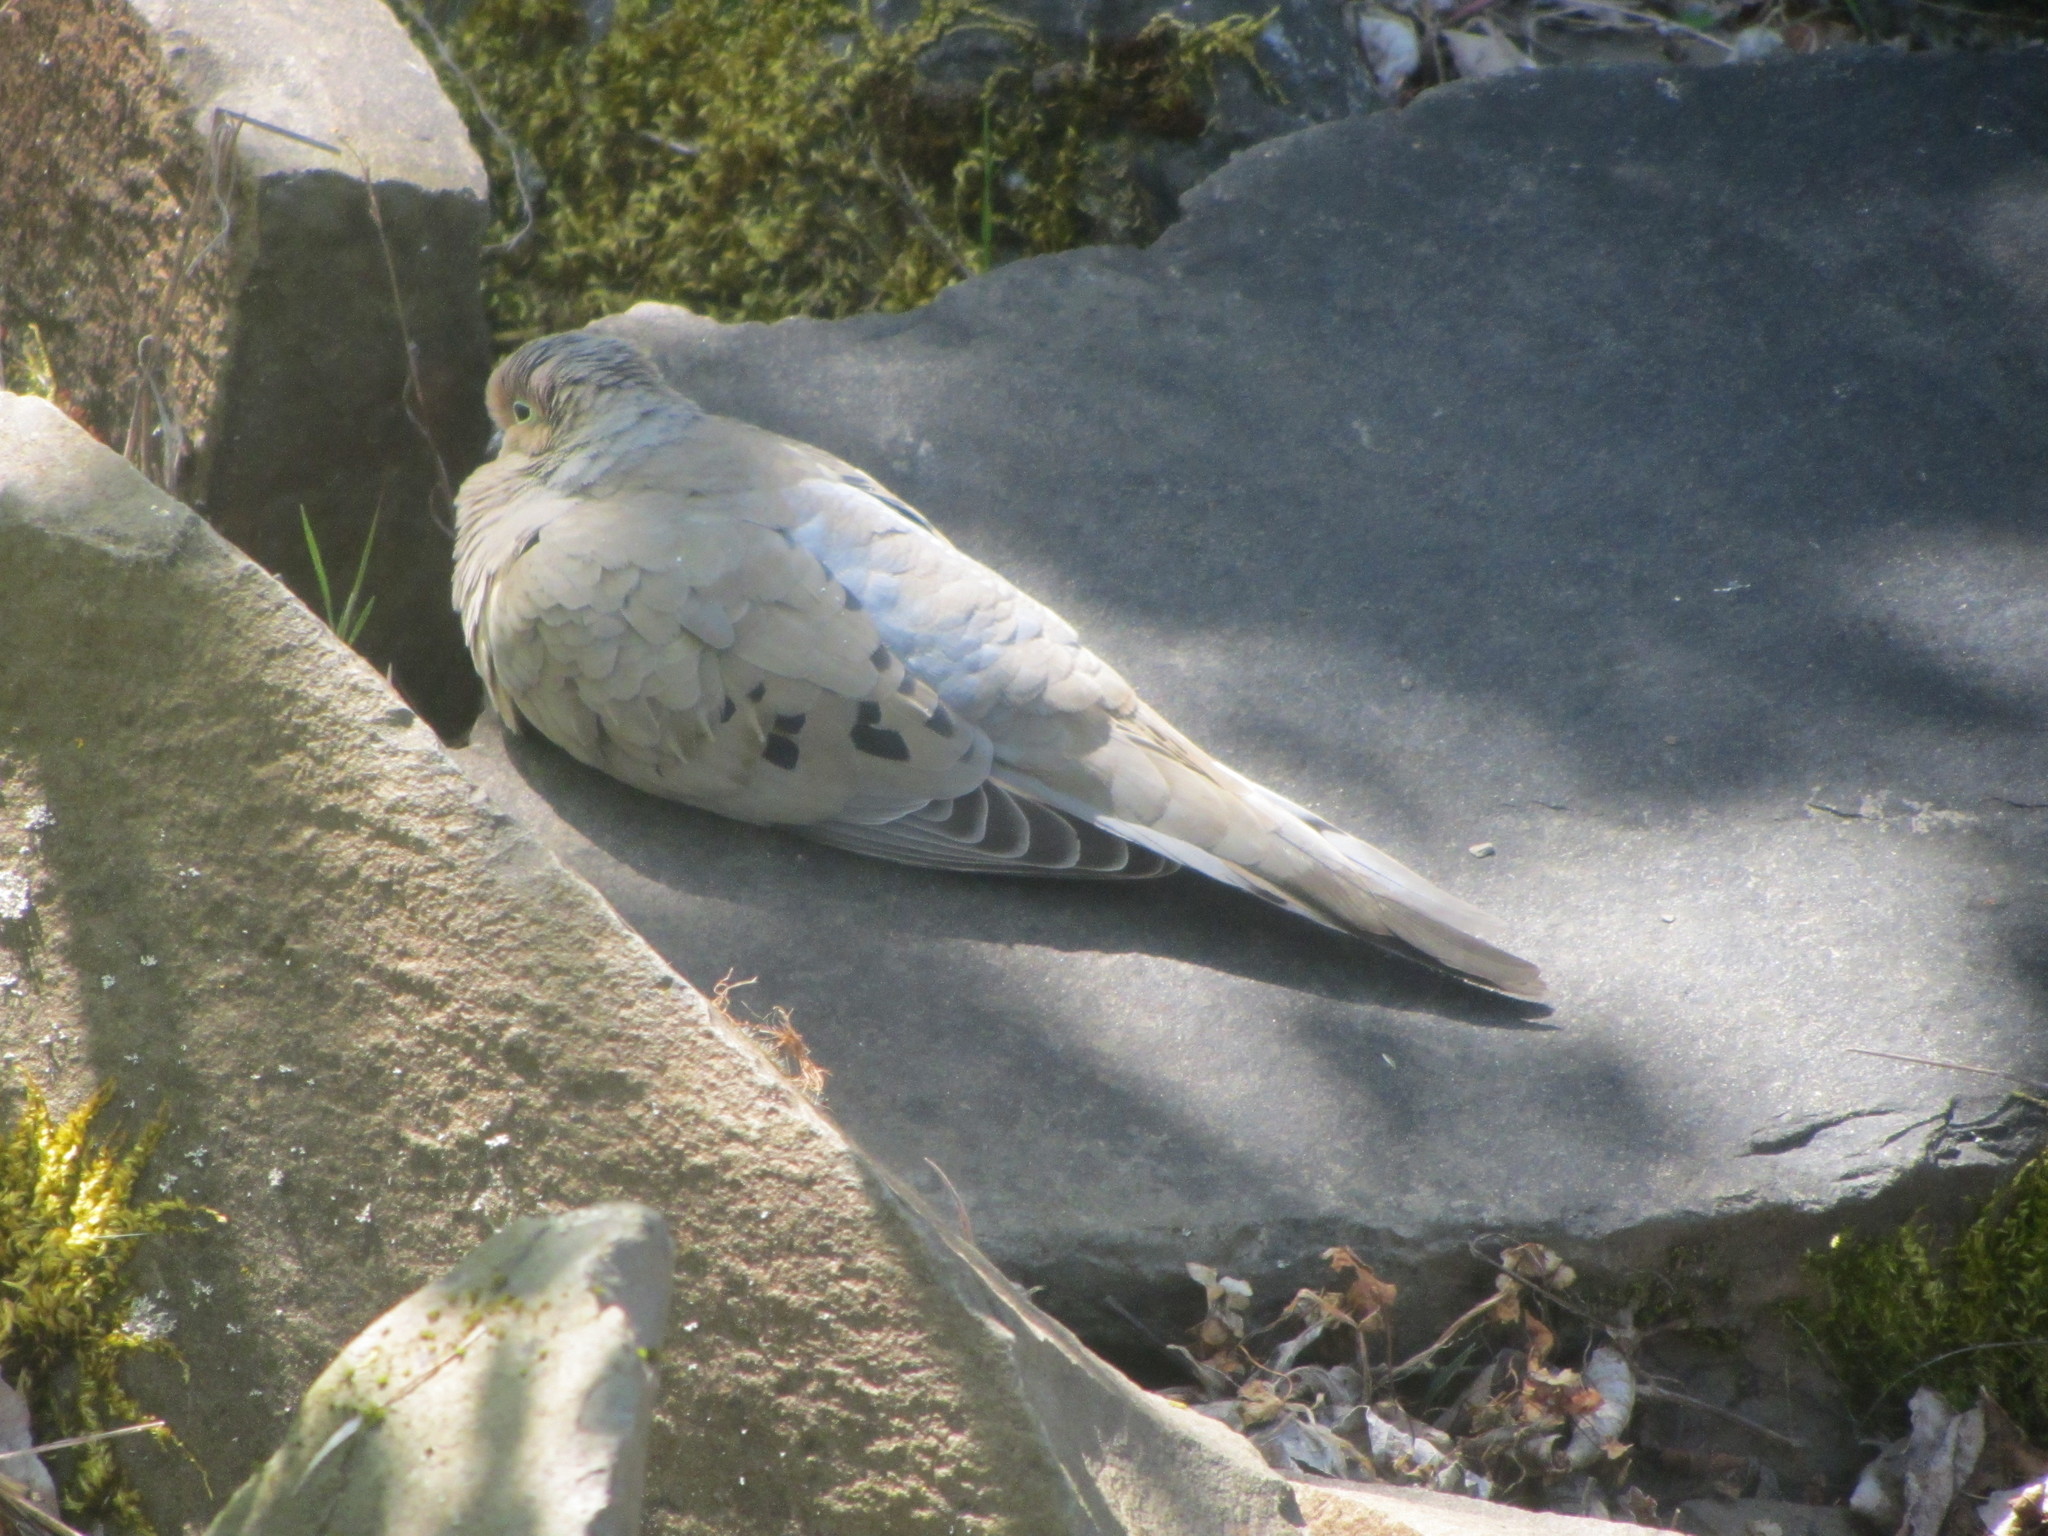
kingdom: Animalia
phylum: Chordata
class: Aves
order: Columbiformes
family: Columbidae
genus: Zenaida
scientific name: Zenaida macroura
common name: Mourning dove
